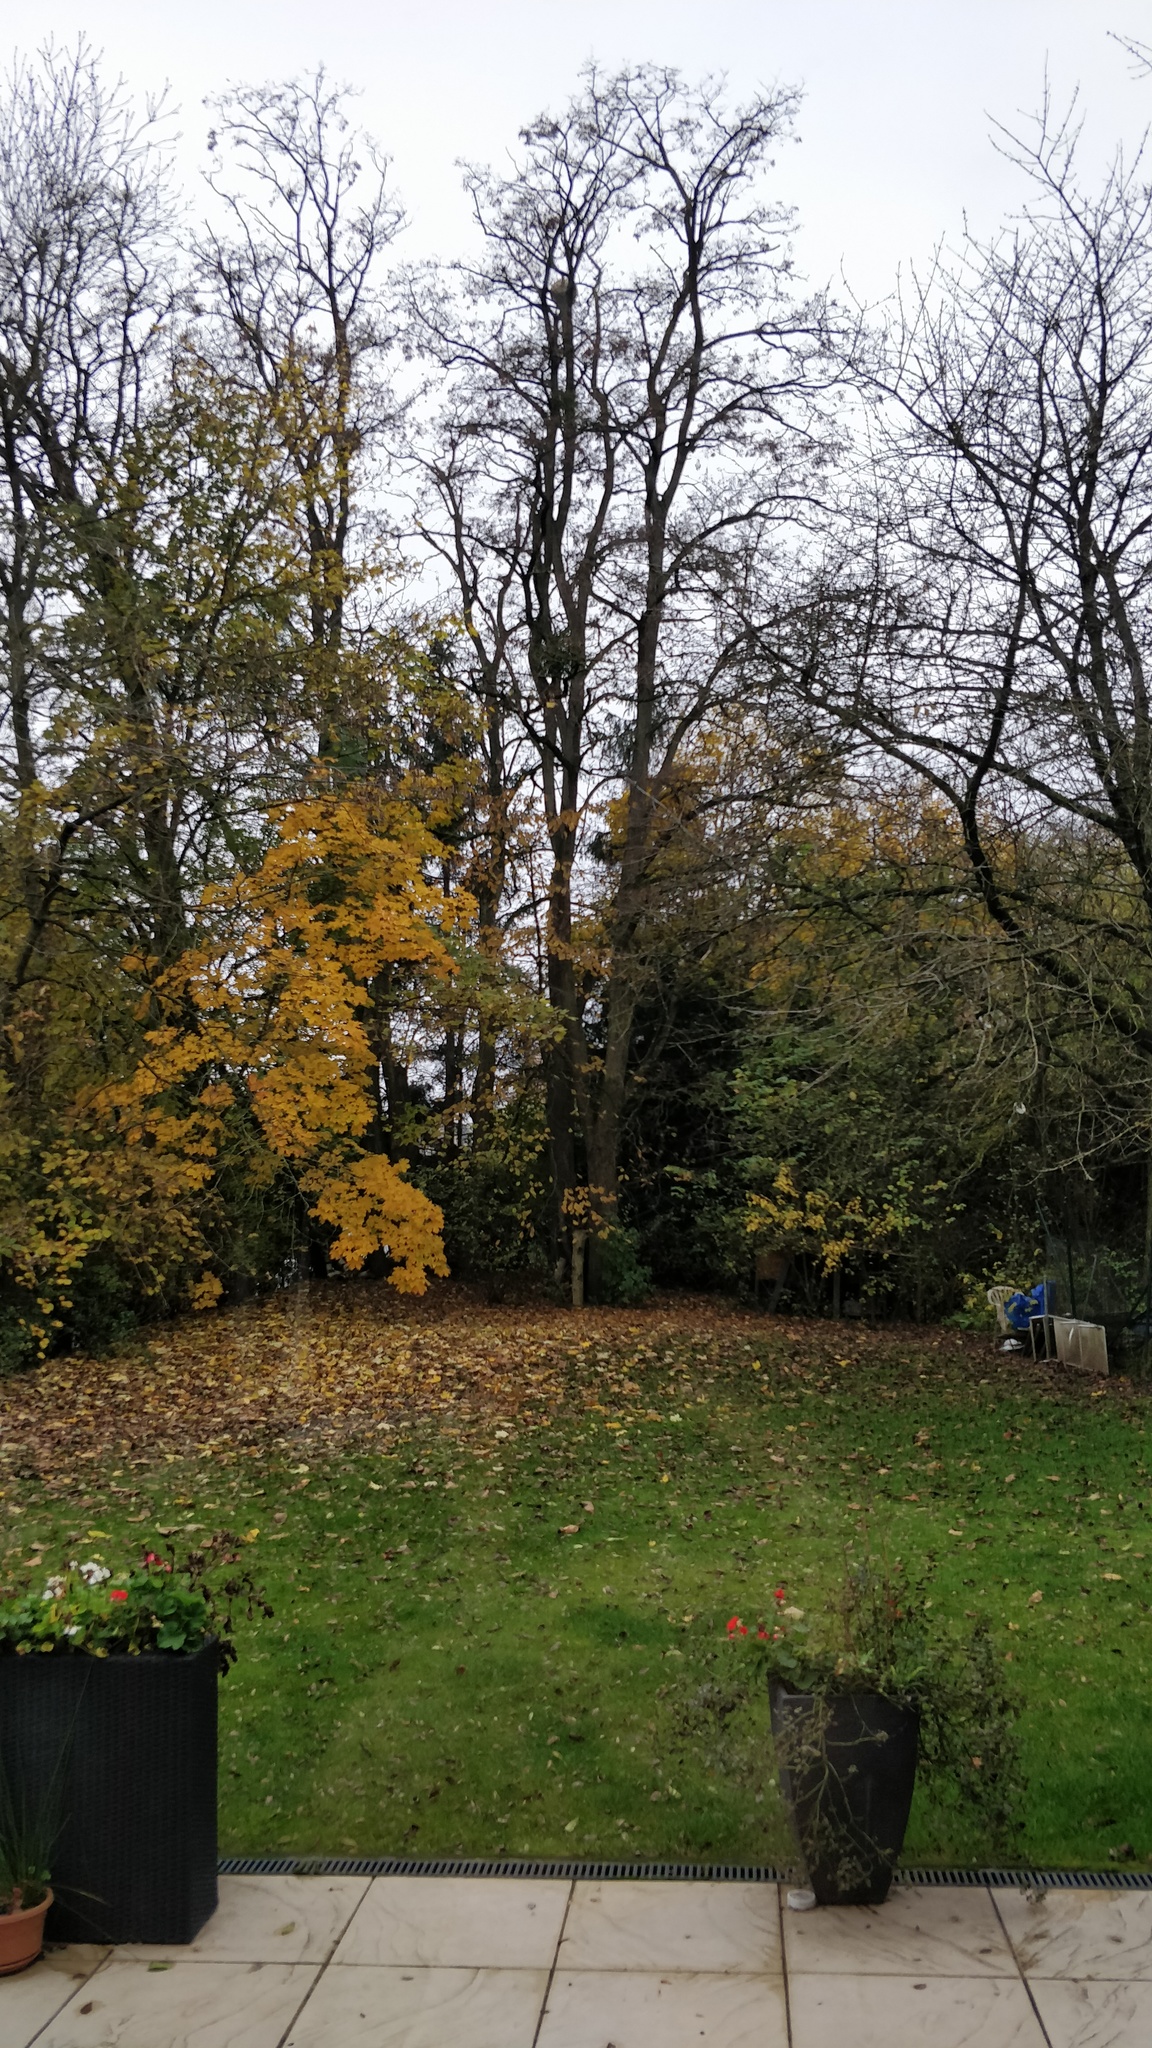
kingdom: Animalia
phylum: Arthropoda
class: Insecta
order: Hymenoptera
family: Vespidae
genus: Vespa
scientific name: Vespa velutina
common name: Asian hornet
